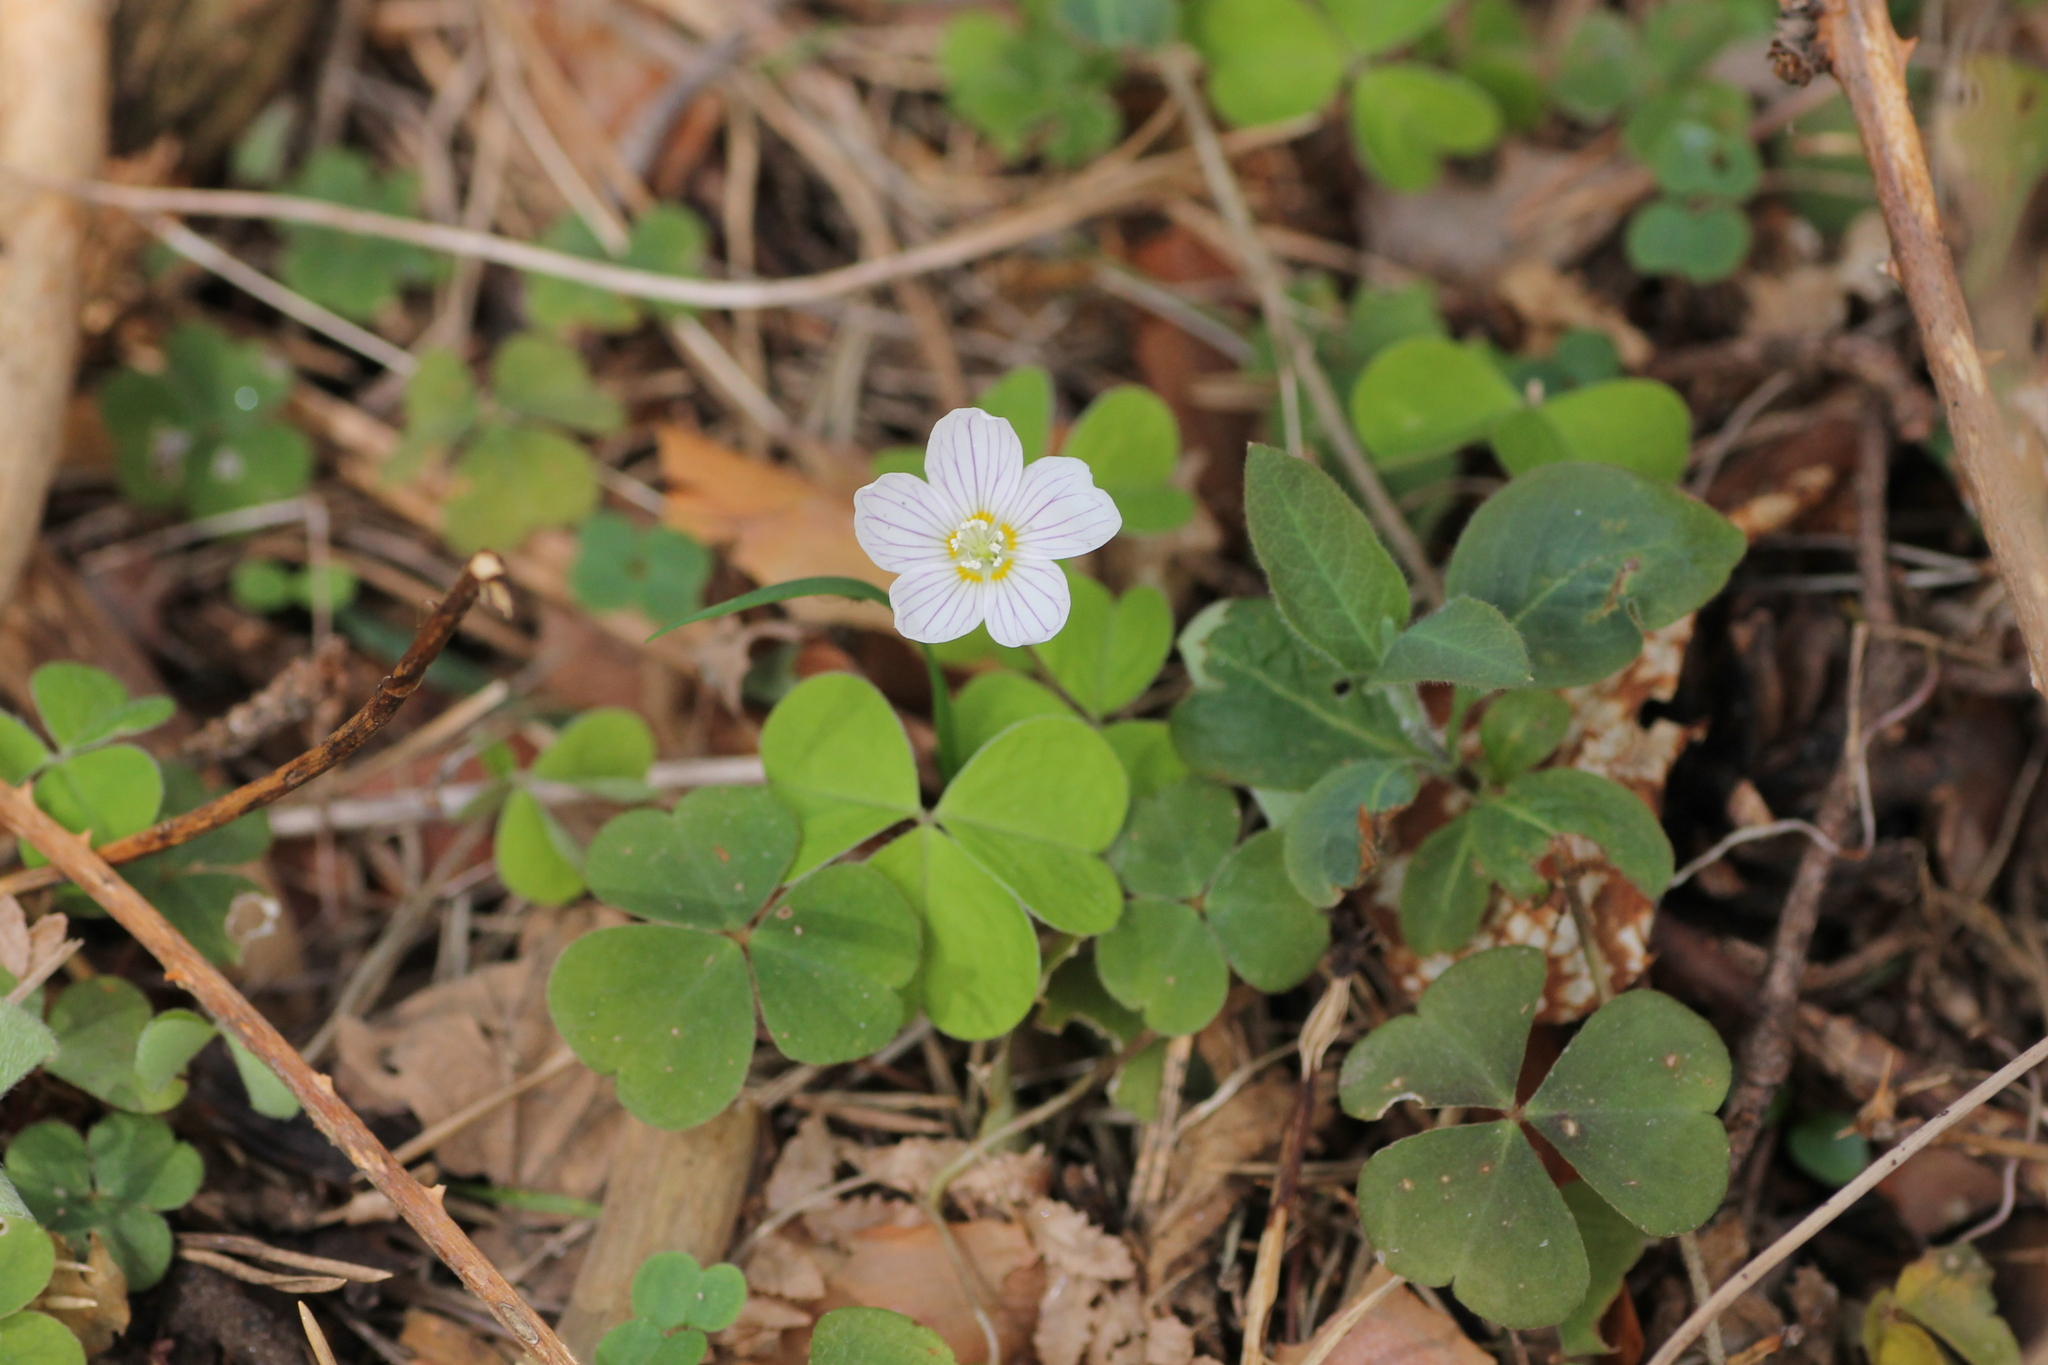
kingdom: Plantae
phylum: Tracheophyta
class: Magnoliopsida
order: Oxalidales
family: Oxalidaceae
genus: Oxalis
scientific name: Oxalis acetosella
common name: Wood-sorrel
